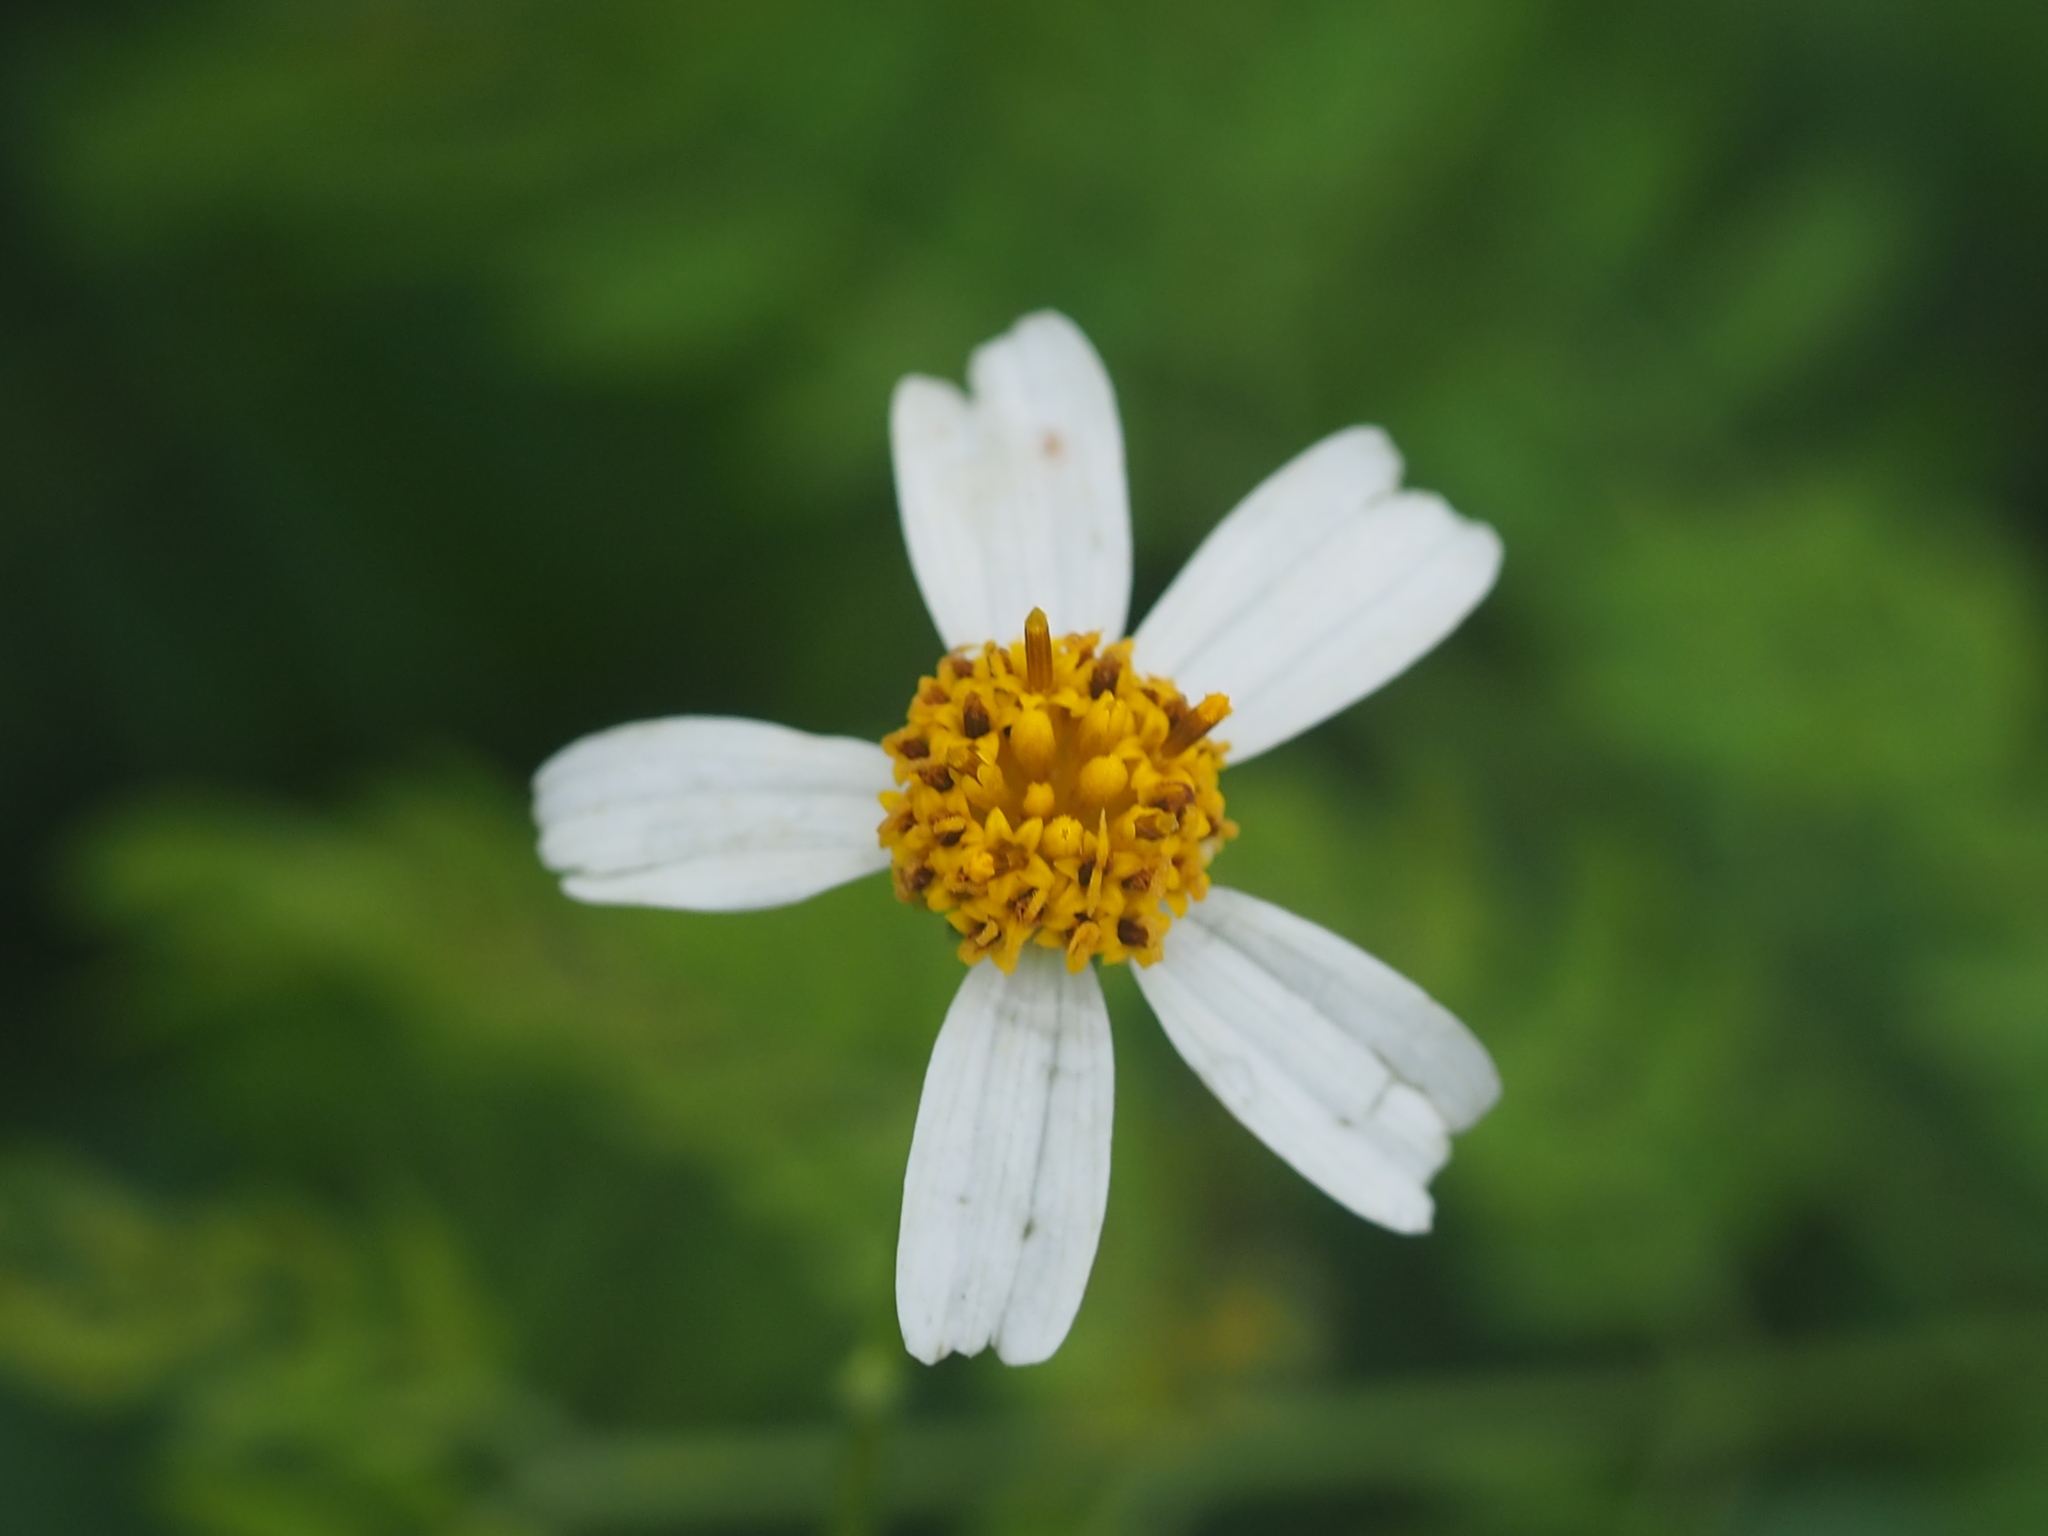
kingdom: Plantae
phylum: Tracheophyta
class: Magnoliopsida
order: Asterales
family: Asteraceae
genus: Bidens
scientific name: Bidens alba
